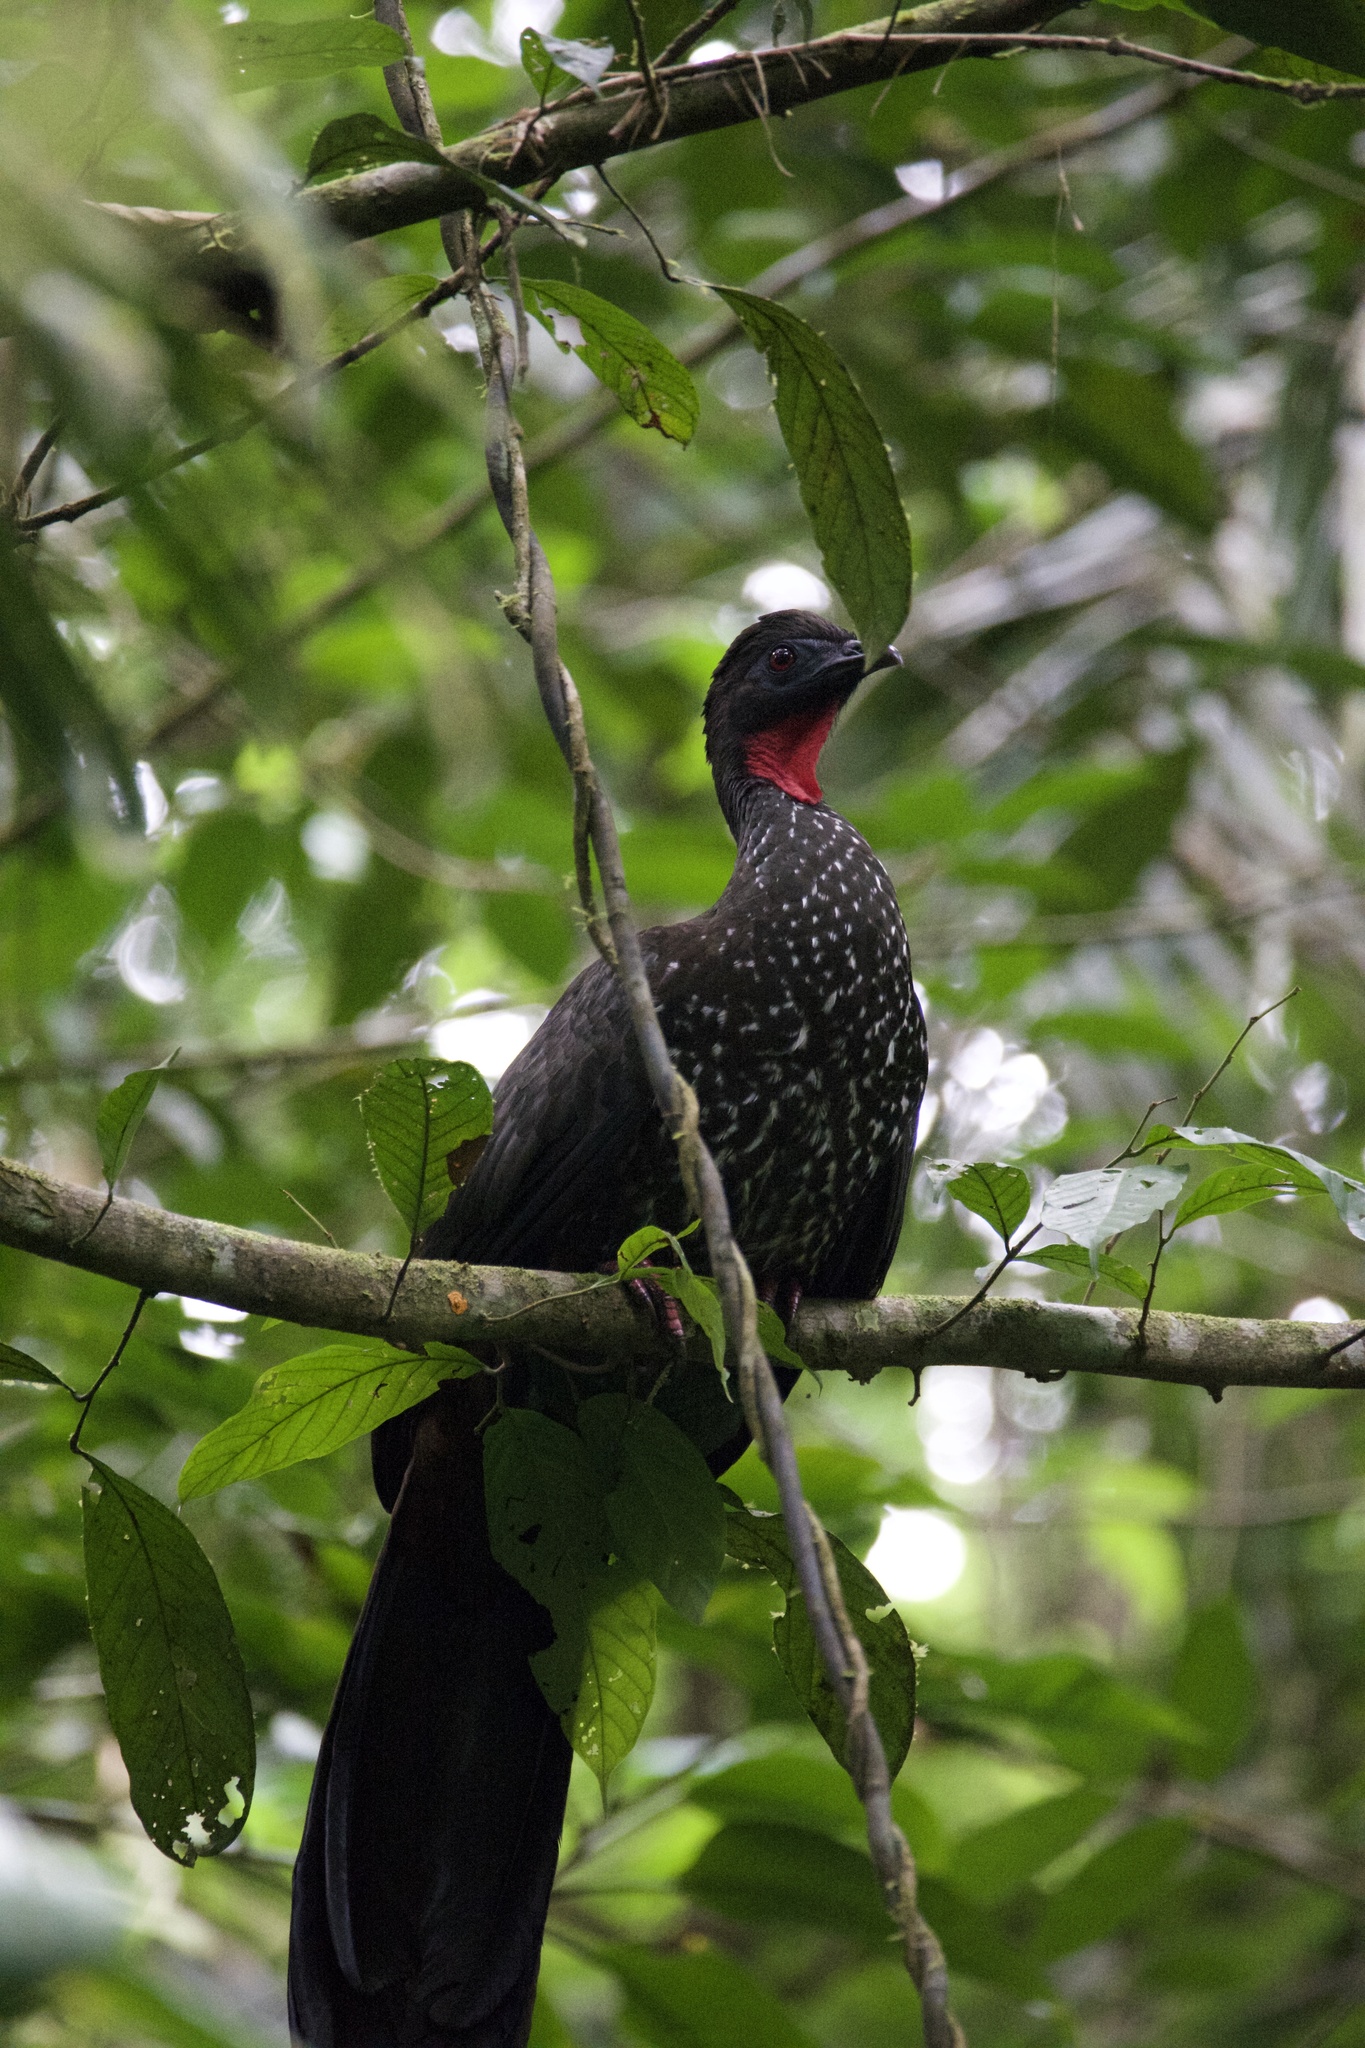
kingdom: Animalia
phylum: Chordata
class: Aves
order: Galliformes
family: Cracidae
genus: Penelope
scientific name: Penelope purpurascens
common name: Crested guan
